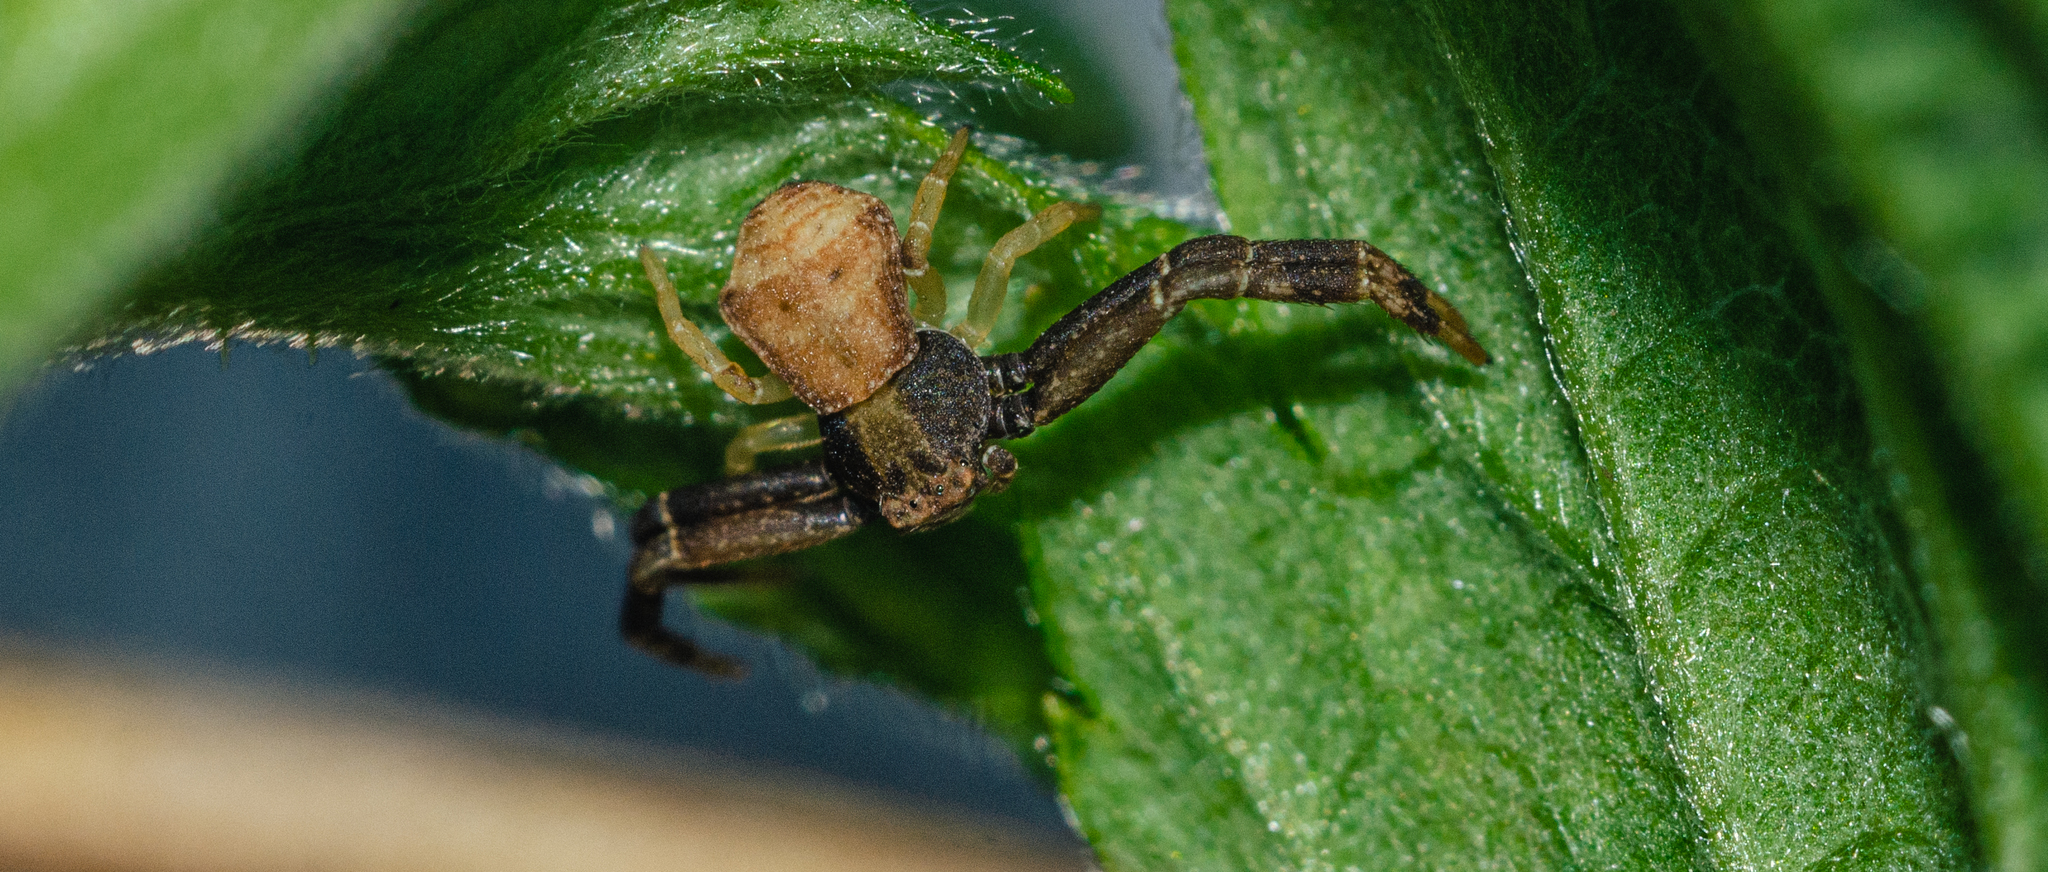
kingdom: Animalia
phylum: Arthropoda
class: Arachnida
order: Araneae
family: Thomisidae
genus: Pistius
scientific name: Pistius truncatus
